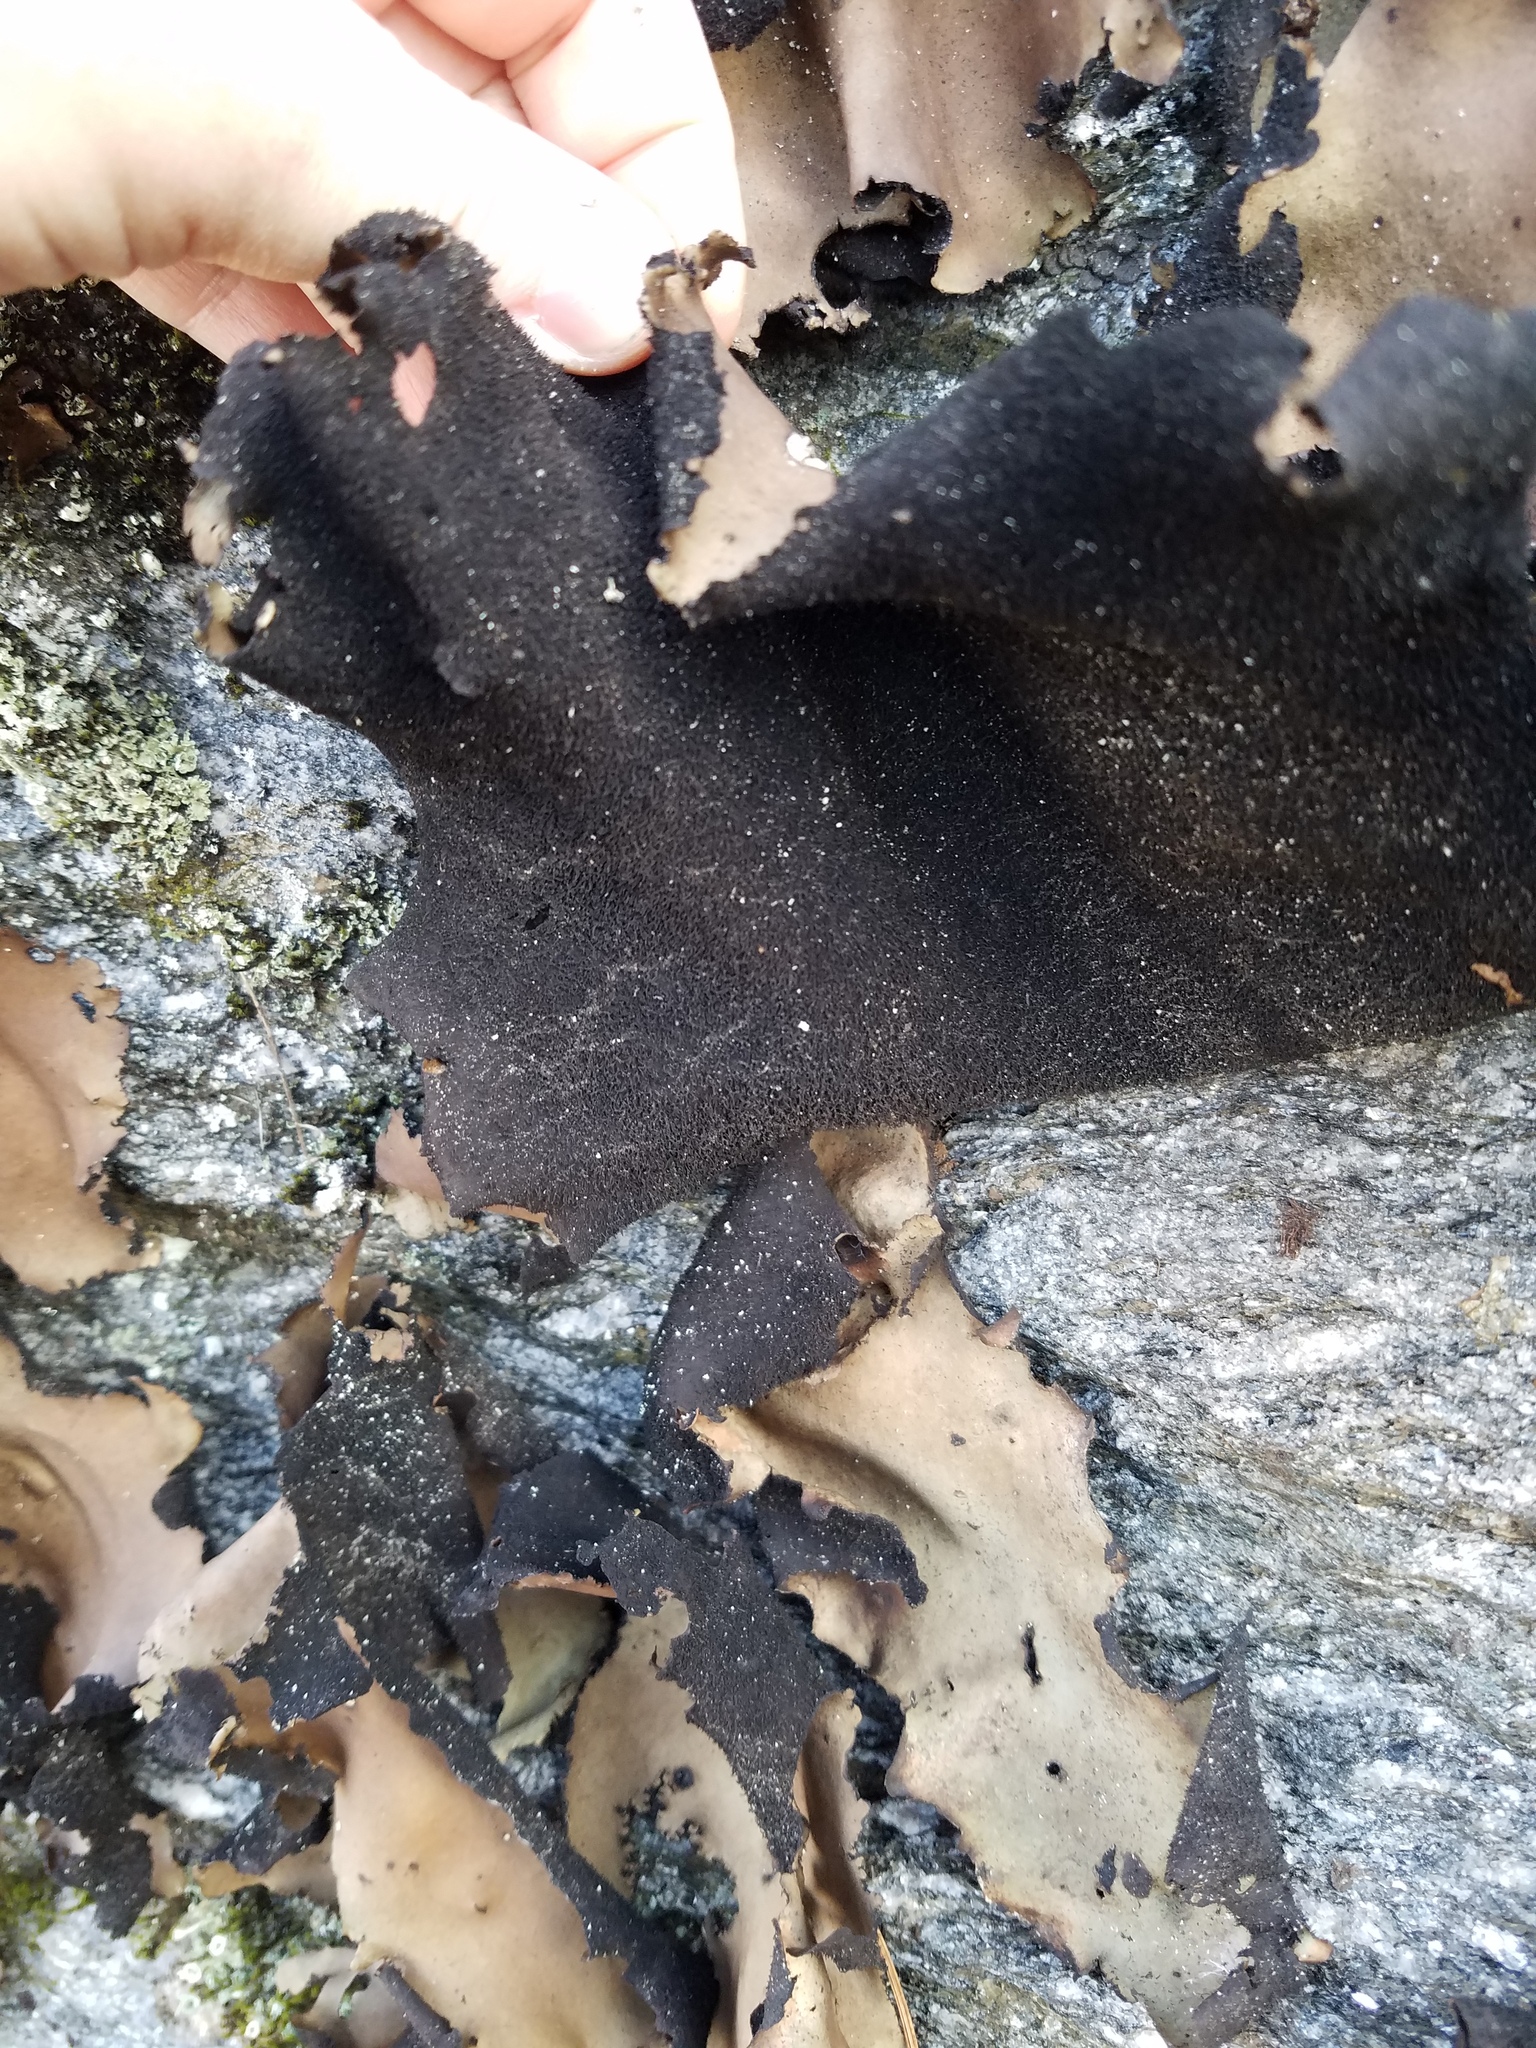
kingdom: Fungi
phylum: Ascomycota
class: Lecanoromycetes
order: Umbilicariales
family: Umbilicariaceae
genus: Umbilicaria
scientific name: Umbilicaria mammulata
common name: Smooth rock tripe
